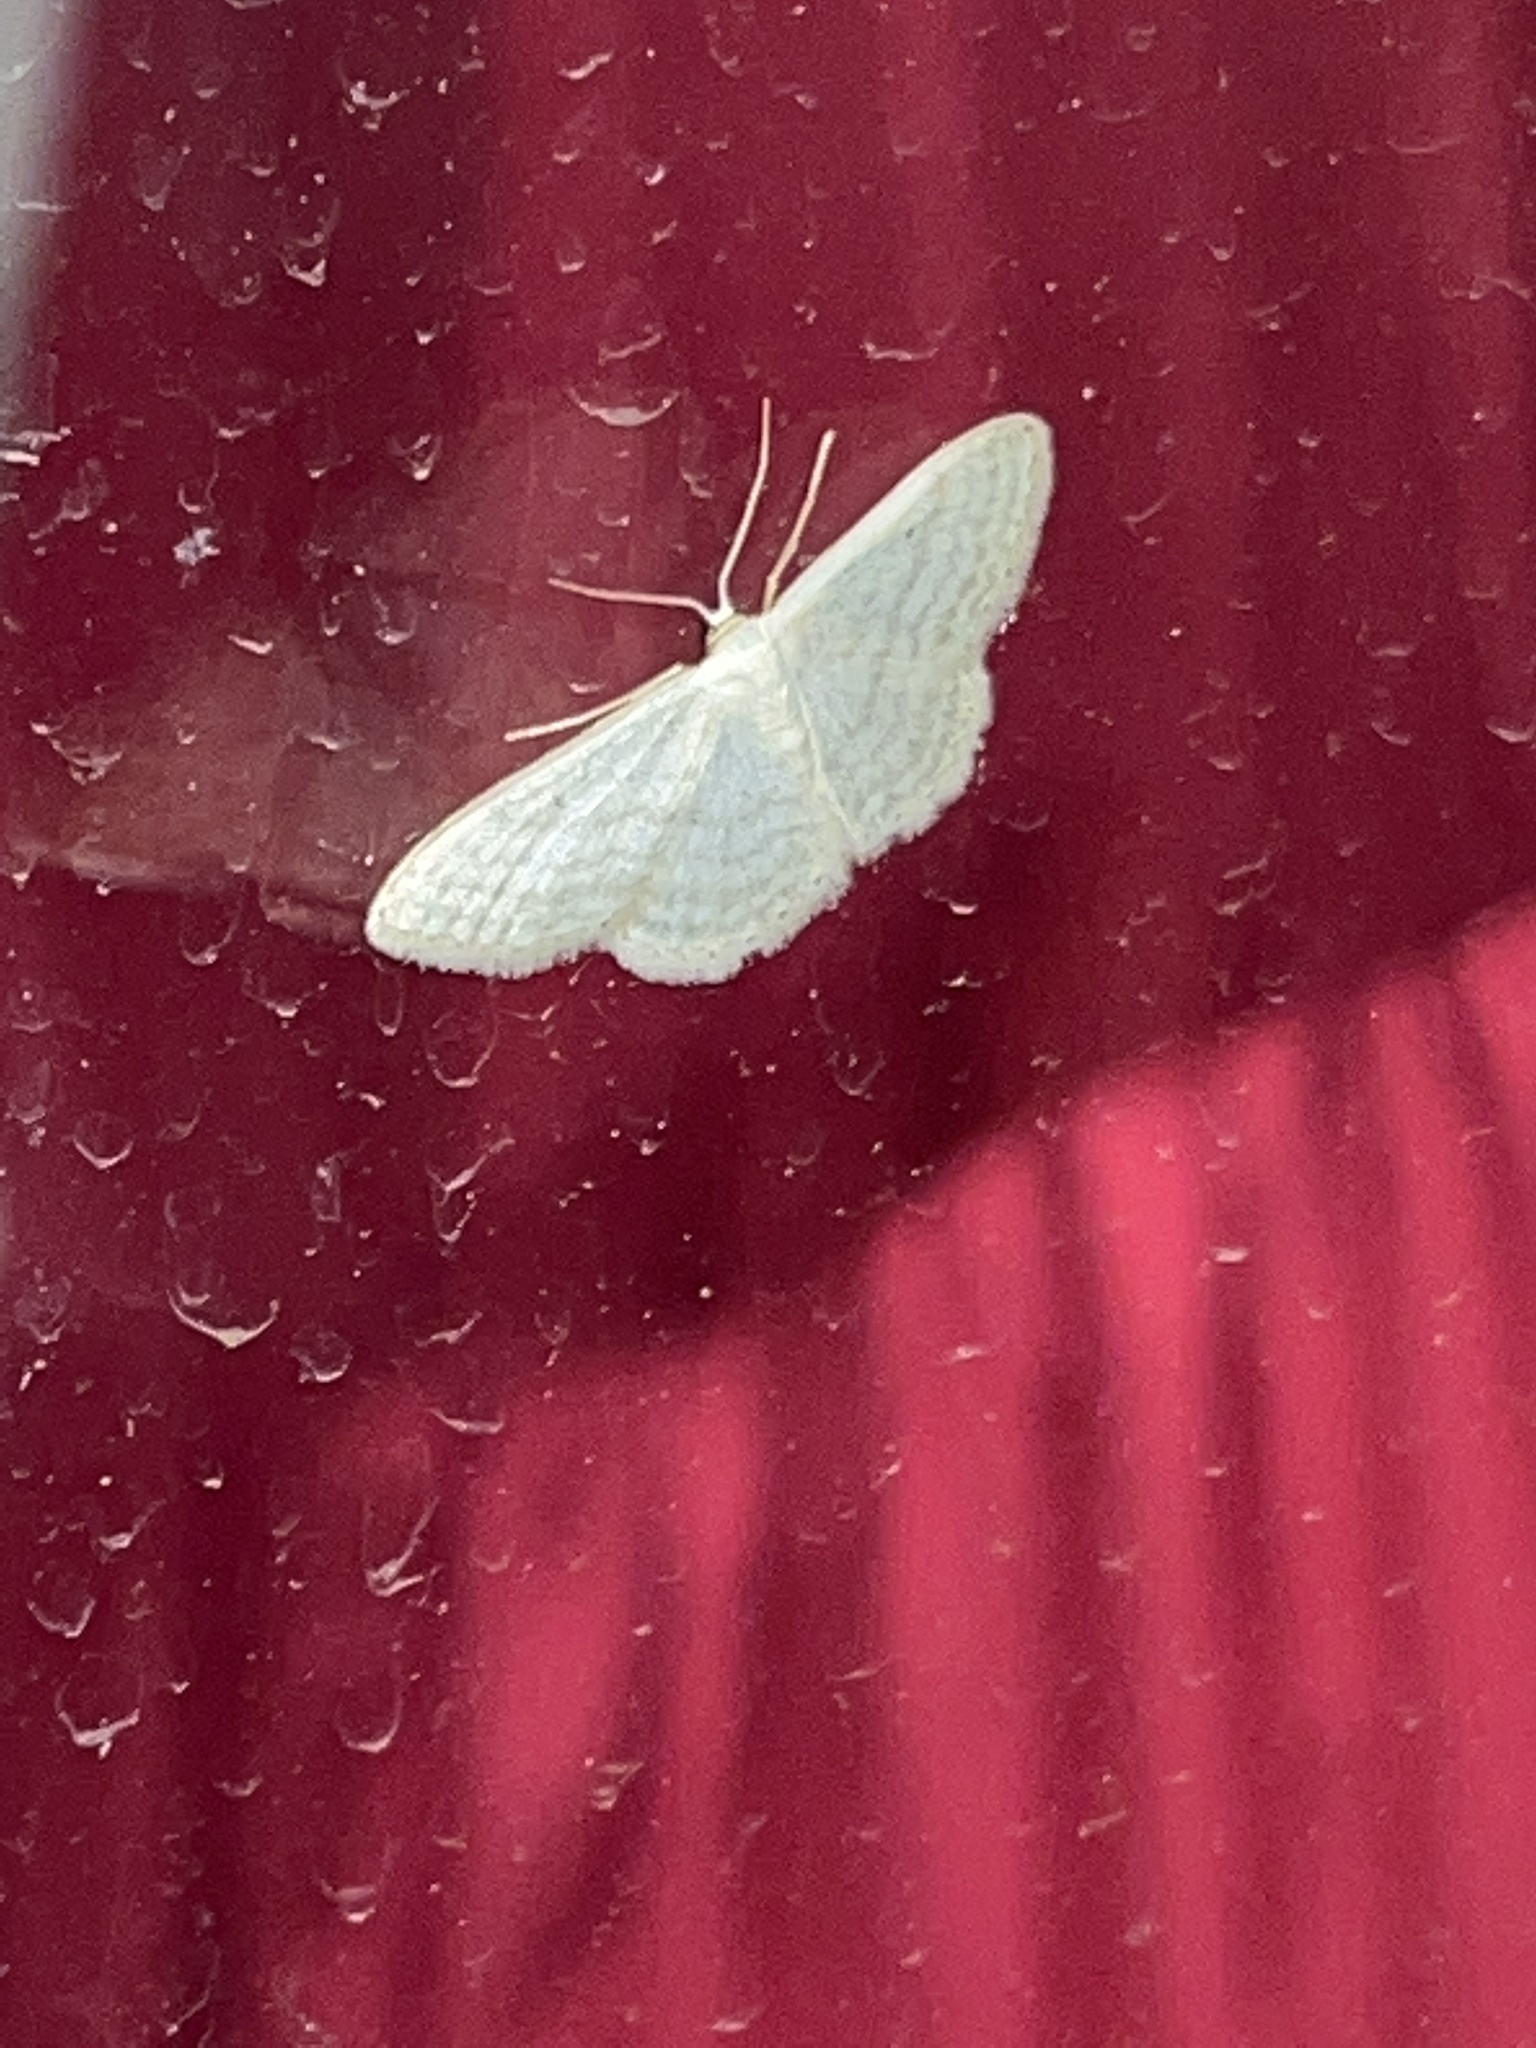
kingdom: Animalia
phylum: Arthropoda
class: Insecta
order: Lepidoptera
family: Geometridae
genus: Idaea
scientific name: Idaea subsericeata
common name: Satin wave
